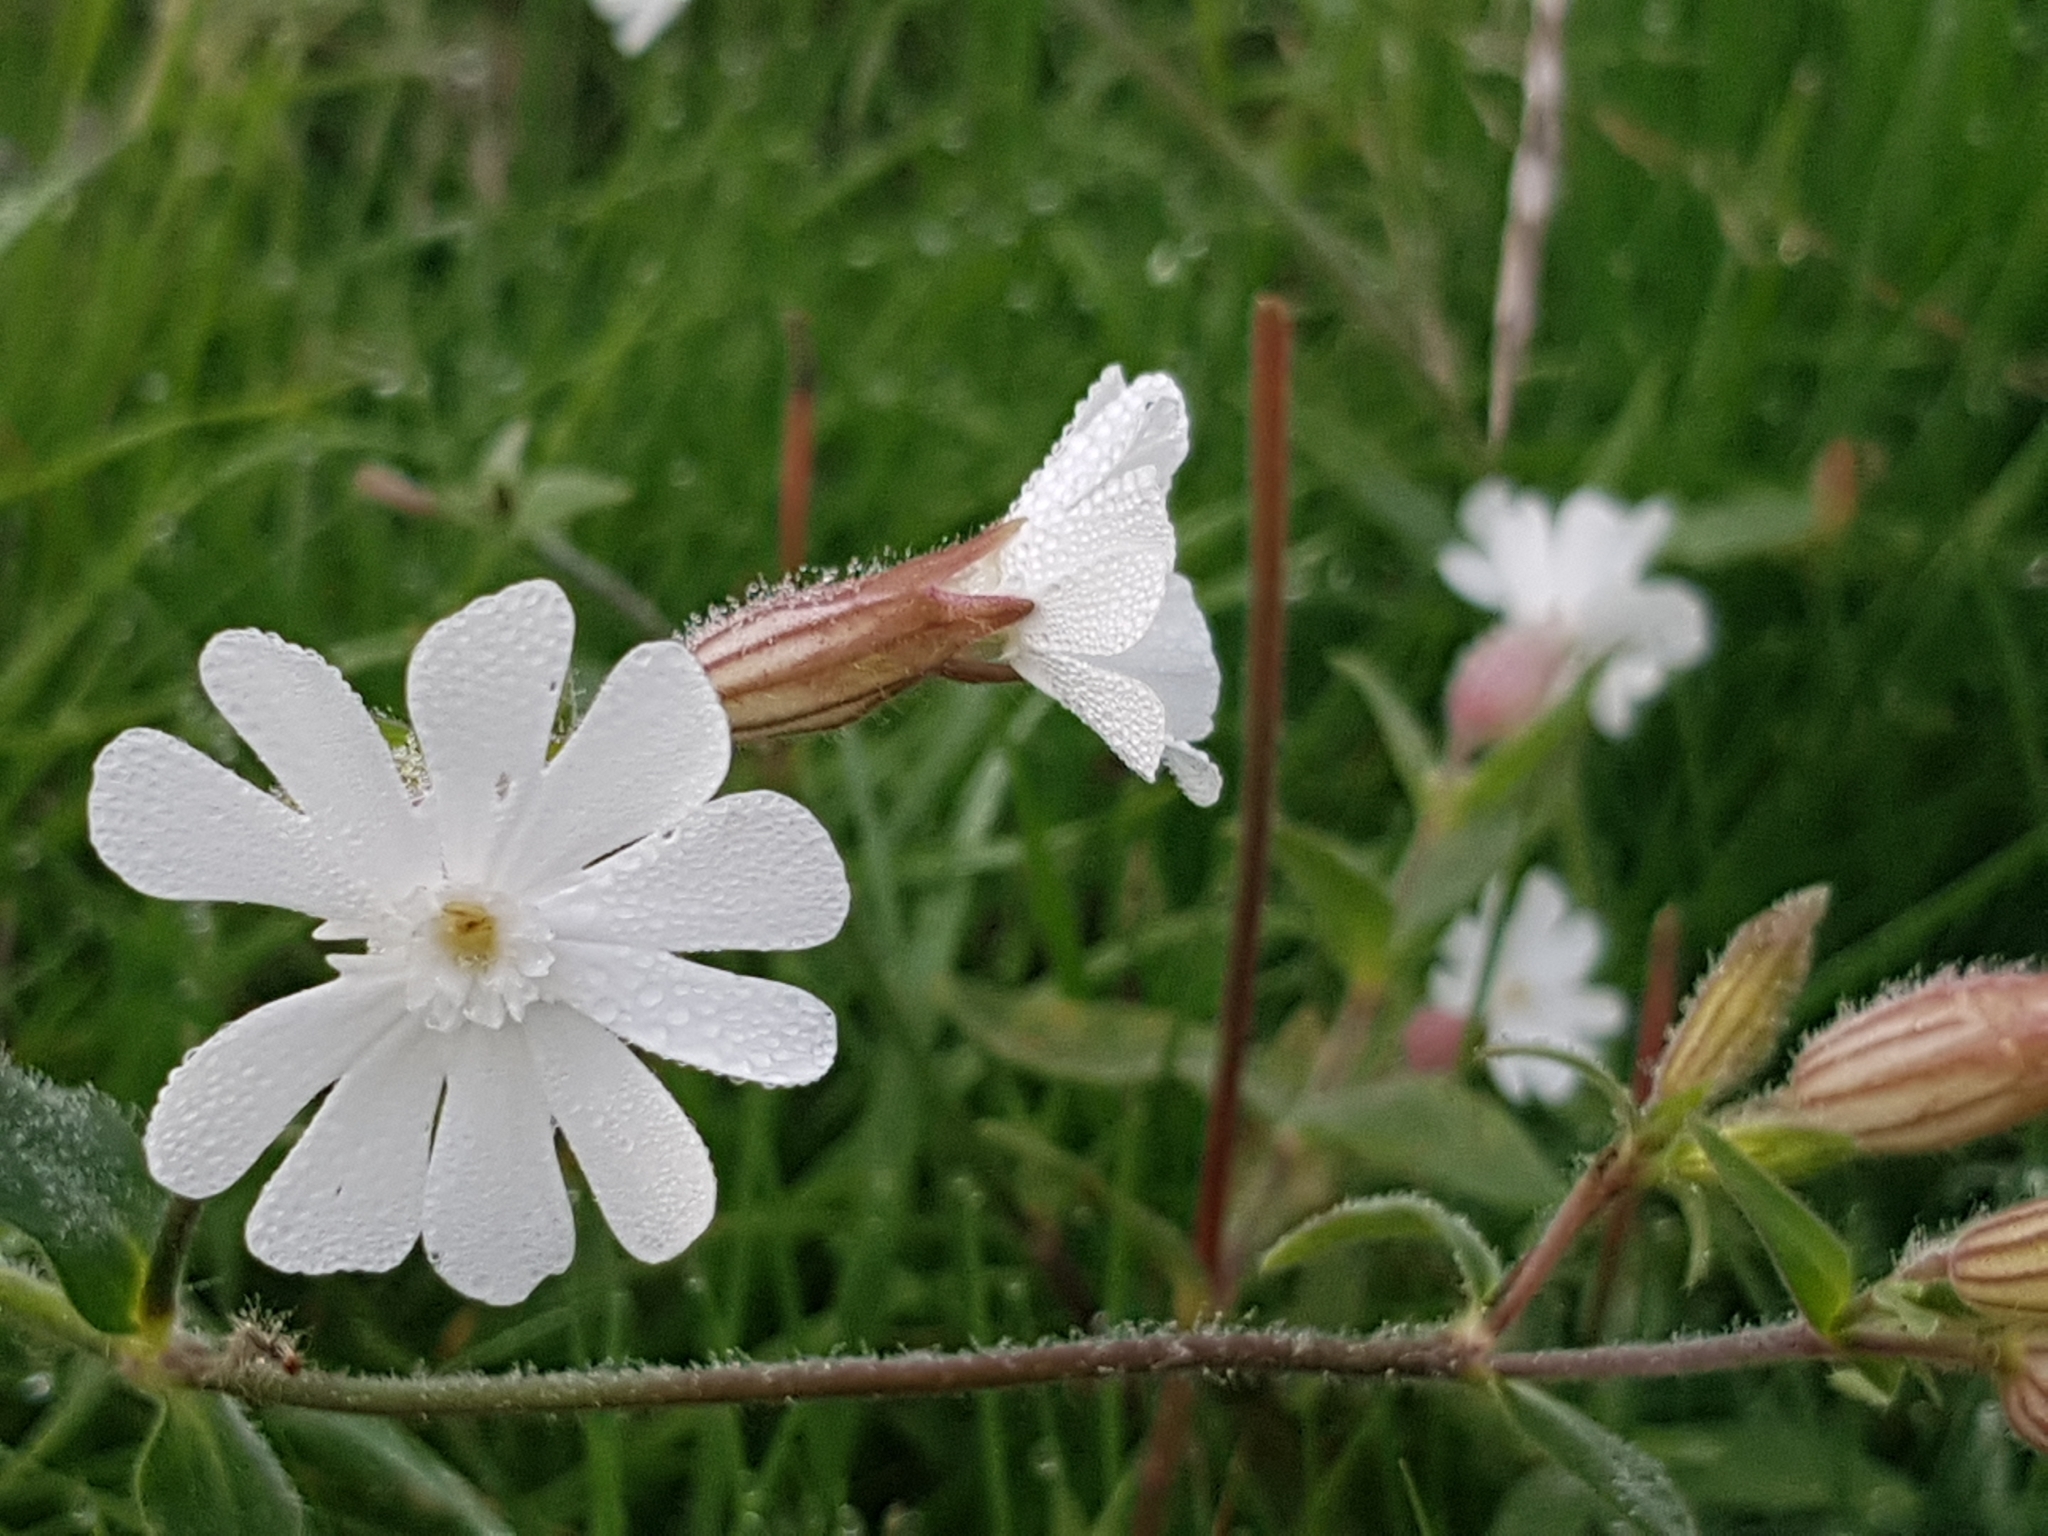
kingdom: Plantae
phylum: Tracheophyta
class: Magnoliopsida
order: Caryophyllales
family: Caryophyllaceae
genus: Silene
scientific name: Silene latifolia
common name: White campion
